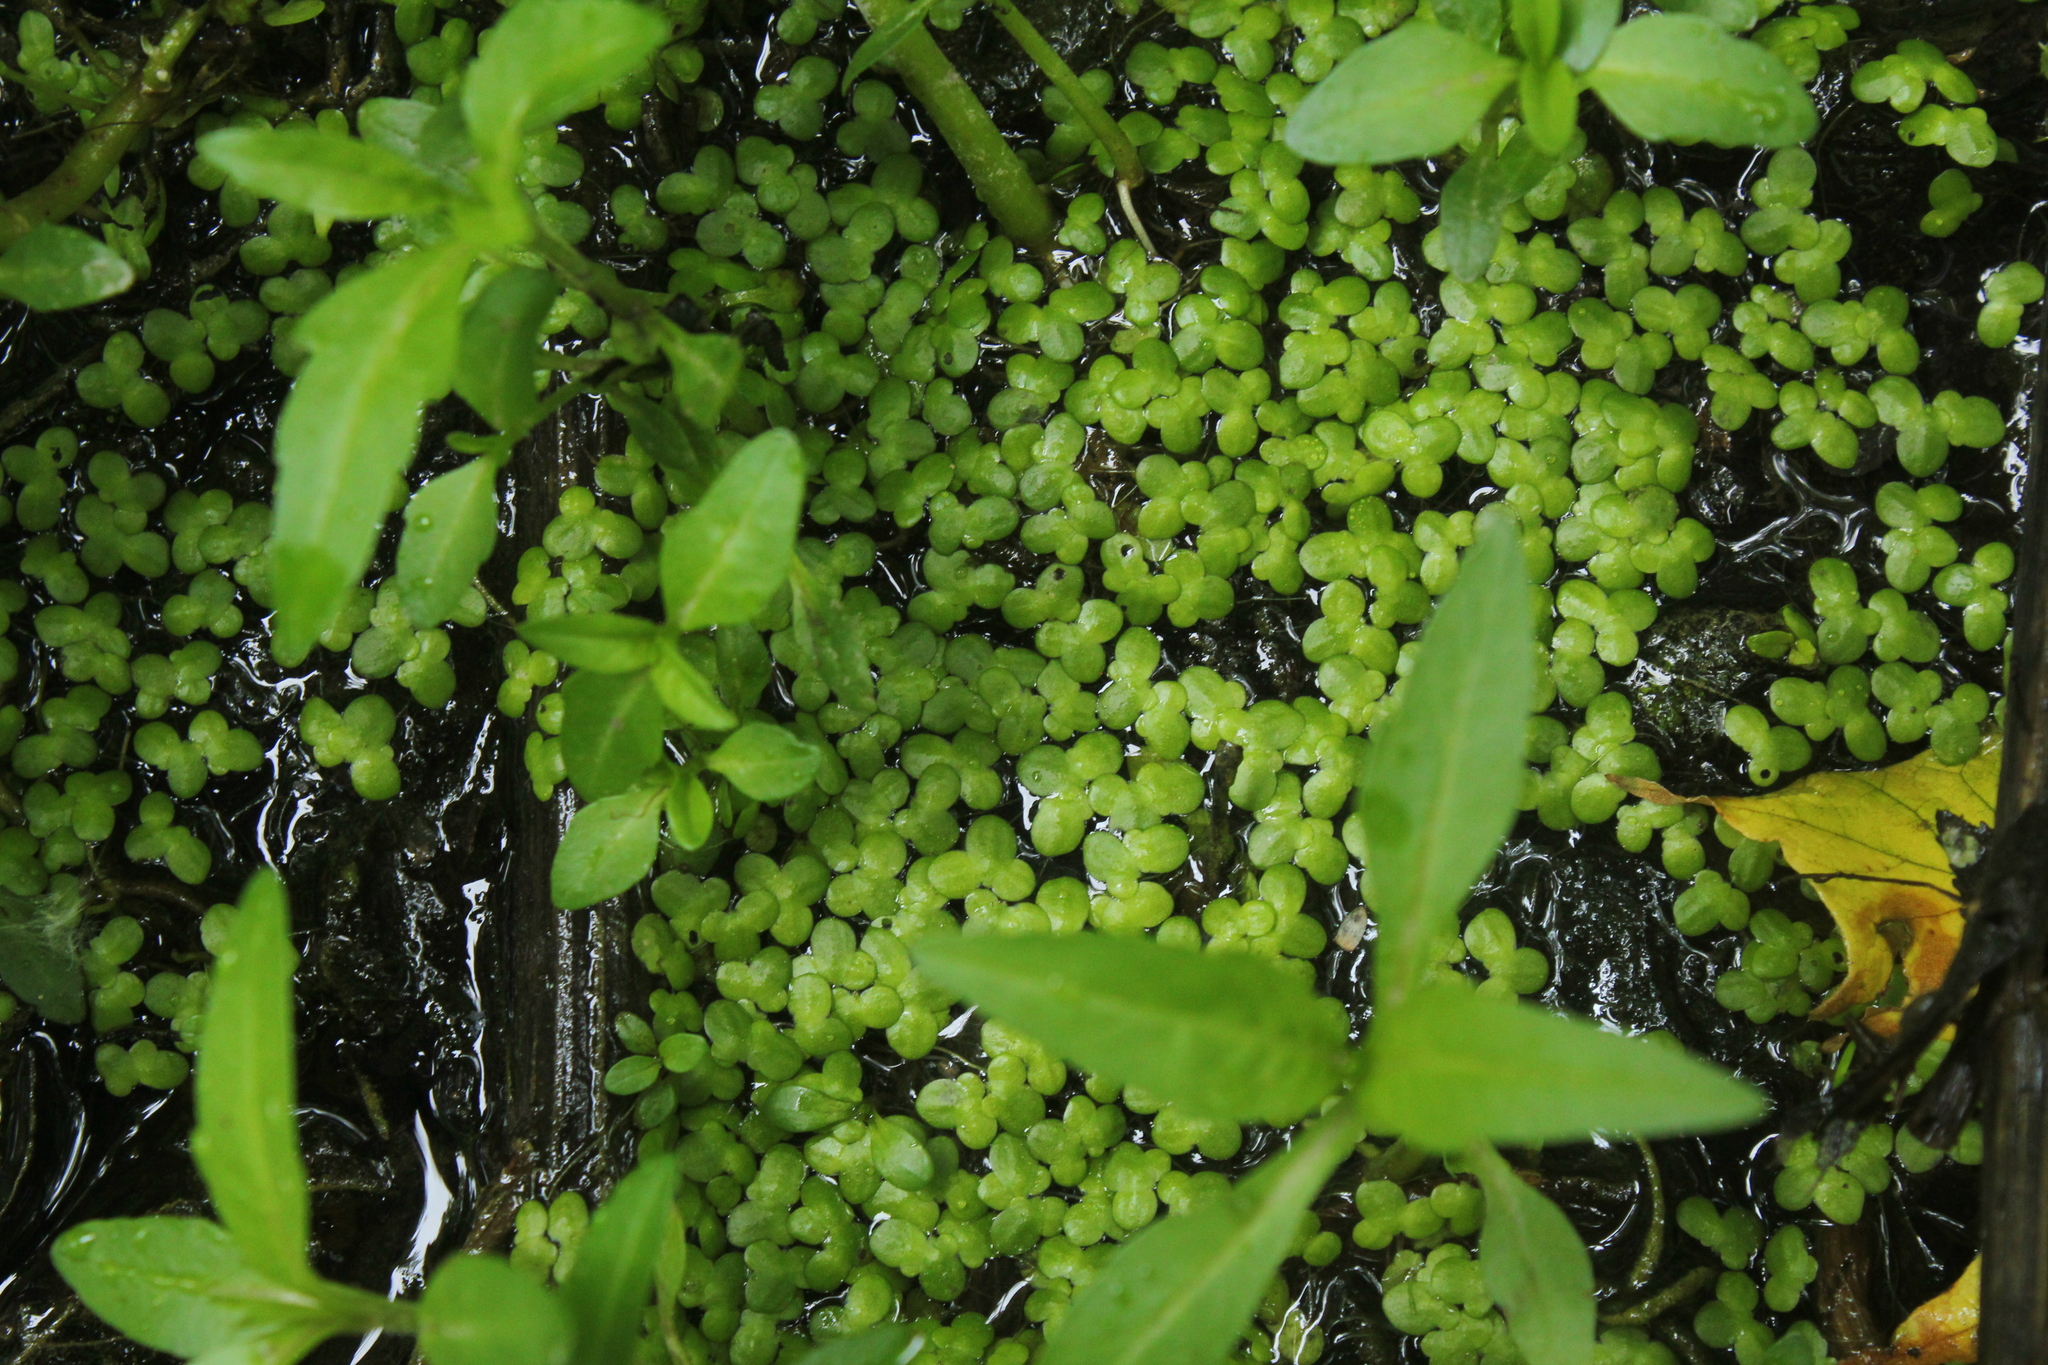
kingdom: Plantae
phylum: Tracheophyta
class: Liliopsida
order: Alismatales
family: Araceae
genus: Lemna
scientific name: Lemna minor
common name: Common duckweed
